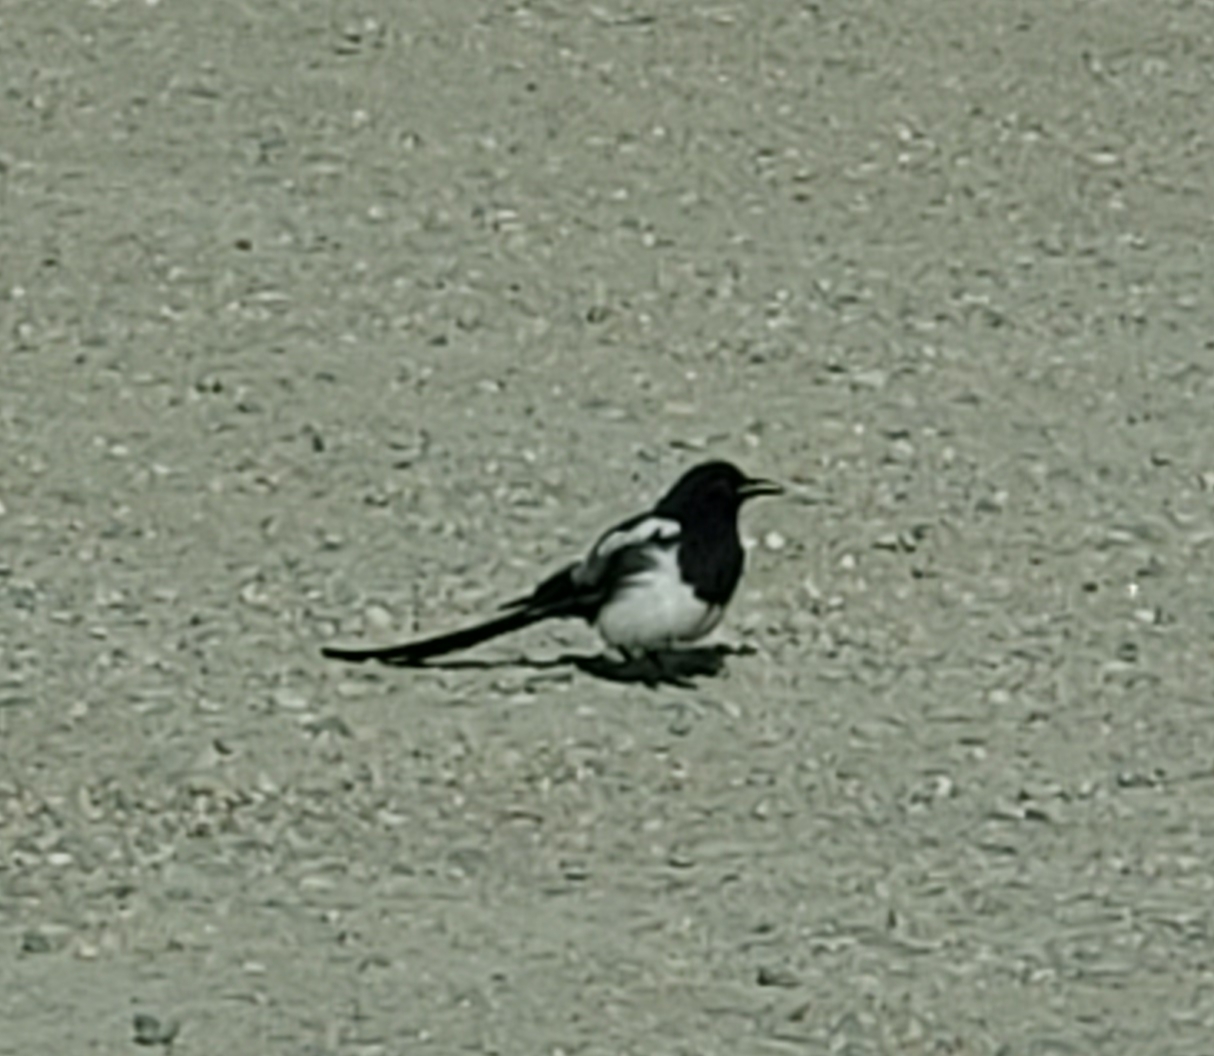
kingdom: Animalia
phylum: Chordata
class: Aves
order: Passeriformes
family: Corvidae
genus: Pica
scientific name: Pica hudsonia
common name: Black-billed magpie
